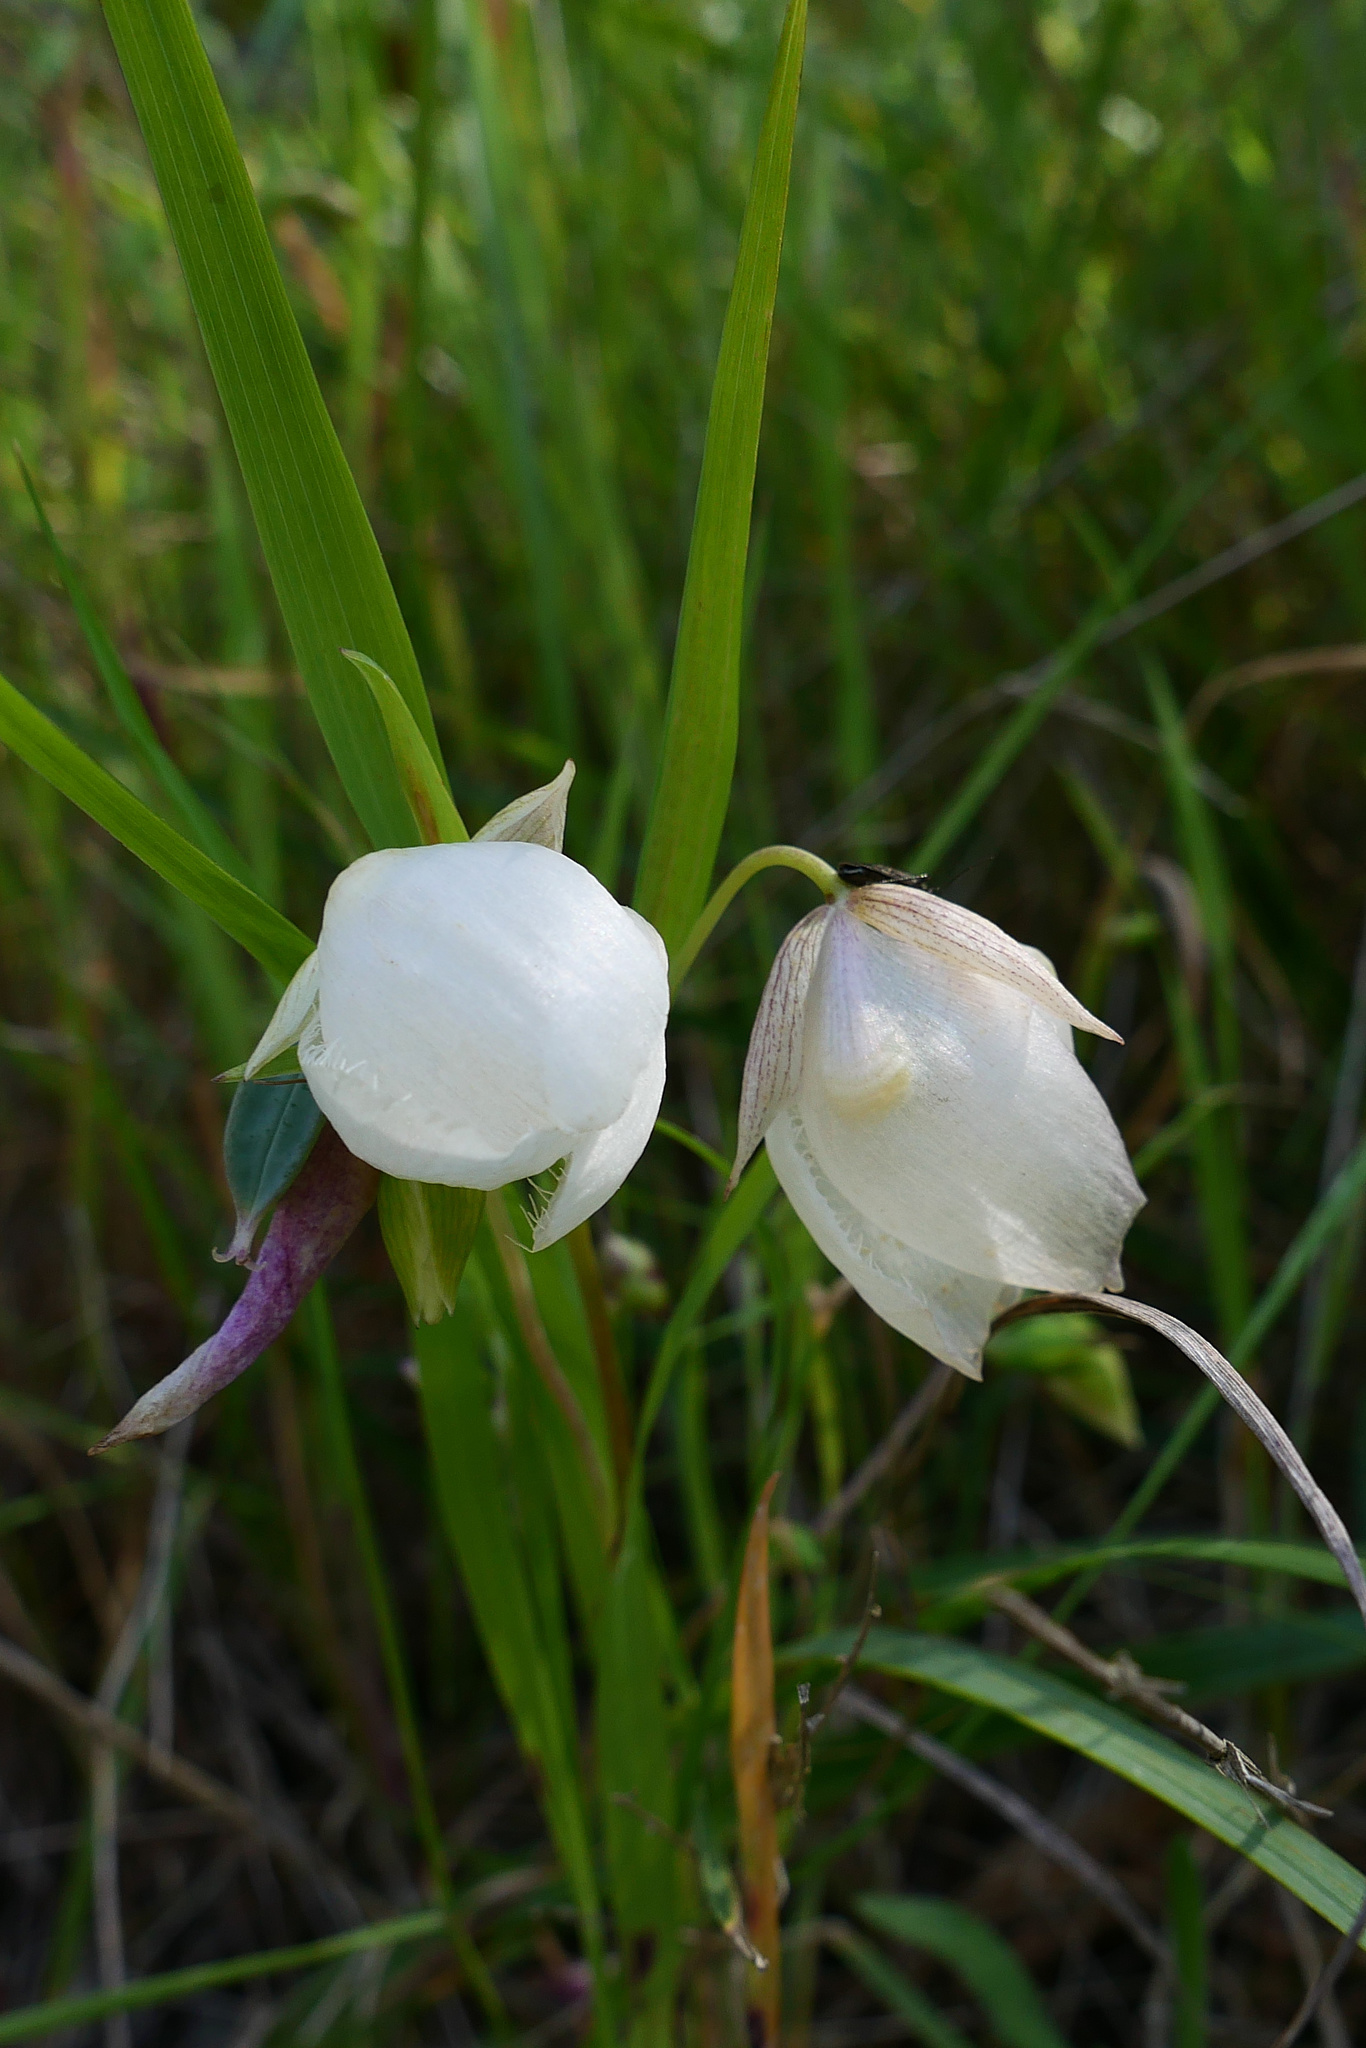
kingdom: Plantae
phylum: Tracheophyta
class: Liliopsida
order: Liliales
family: Liliaceae
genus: Calochortus
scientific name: Calochortus albus
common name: Fairy-lantern
